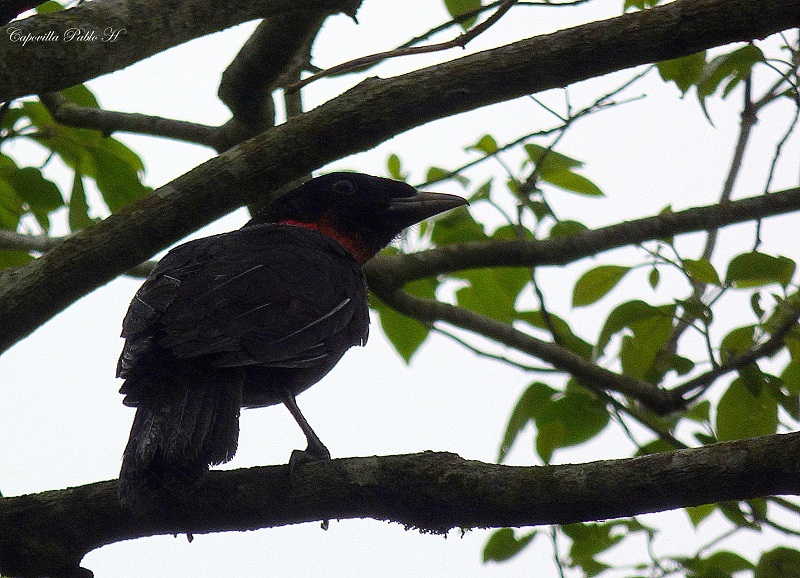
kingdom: Animalia
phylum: Chordata
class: Aves
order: Passeriformes
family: Cotingidae
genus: Pyroderus
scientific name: Pyroderus scutatus
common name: Red-ruffed fruitcrow
